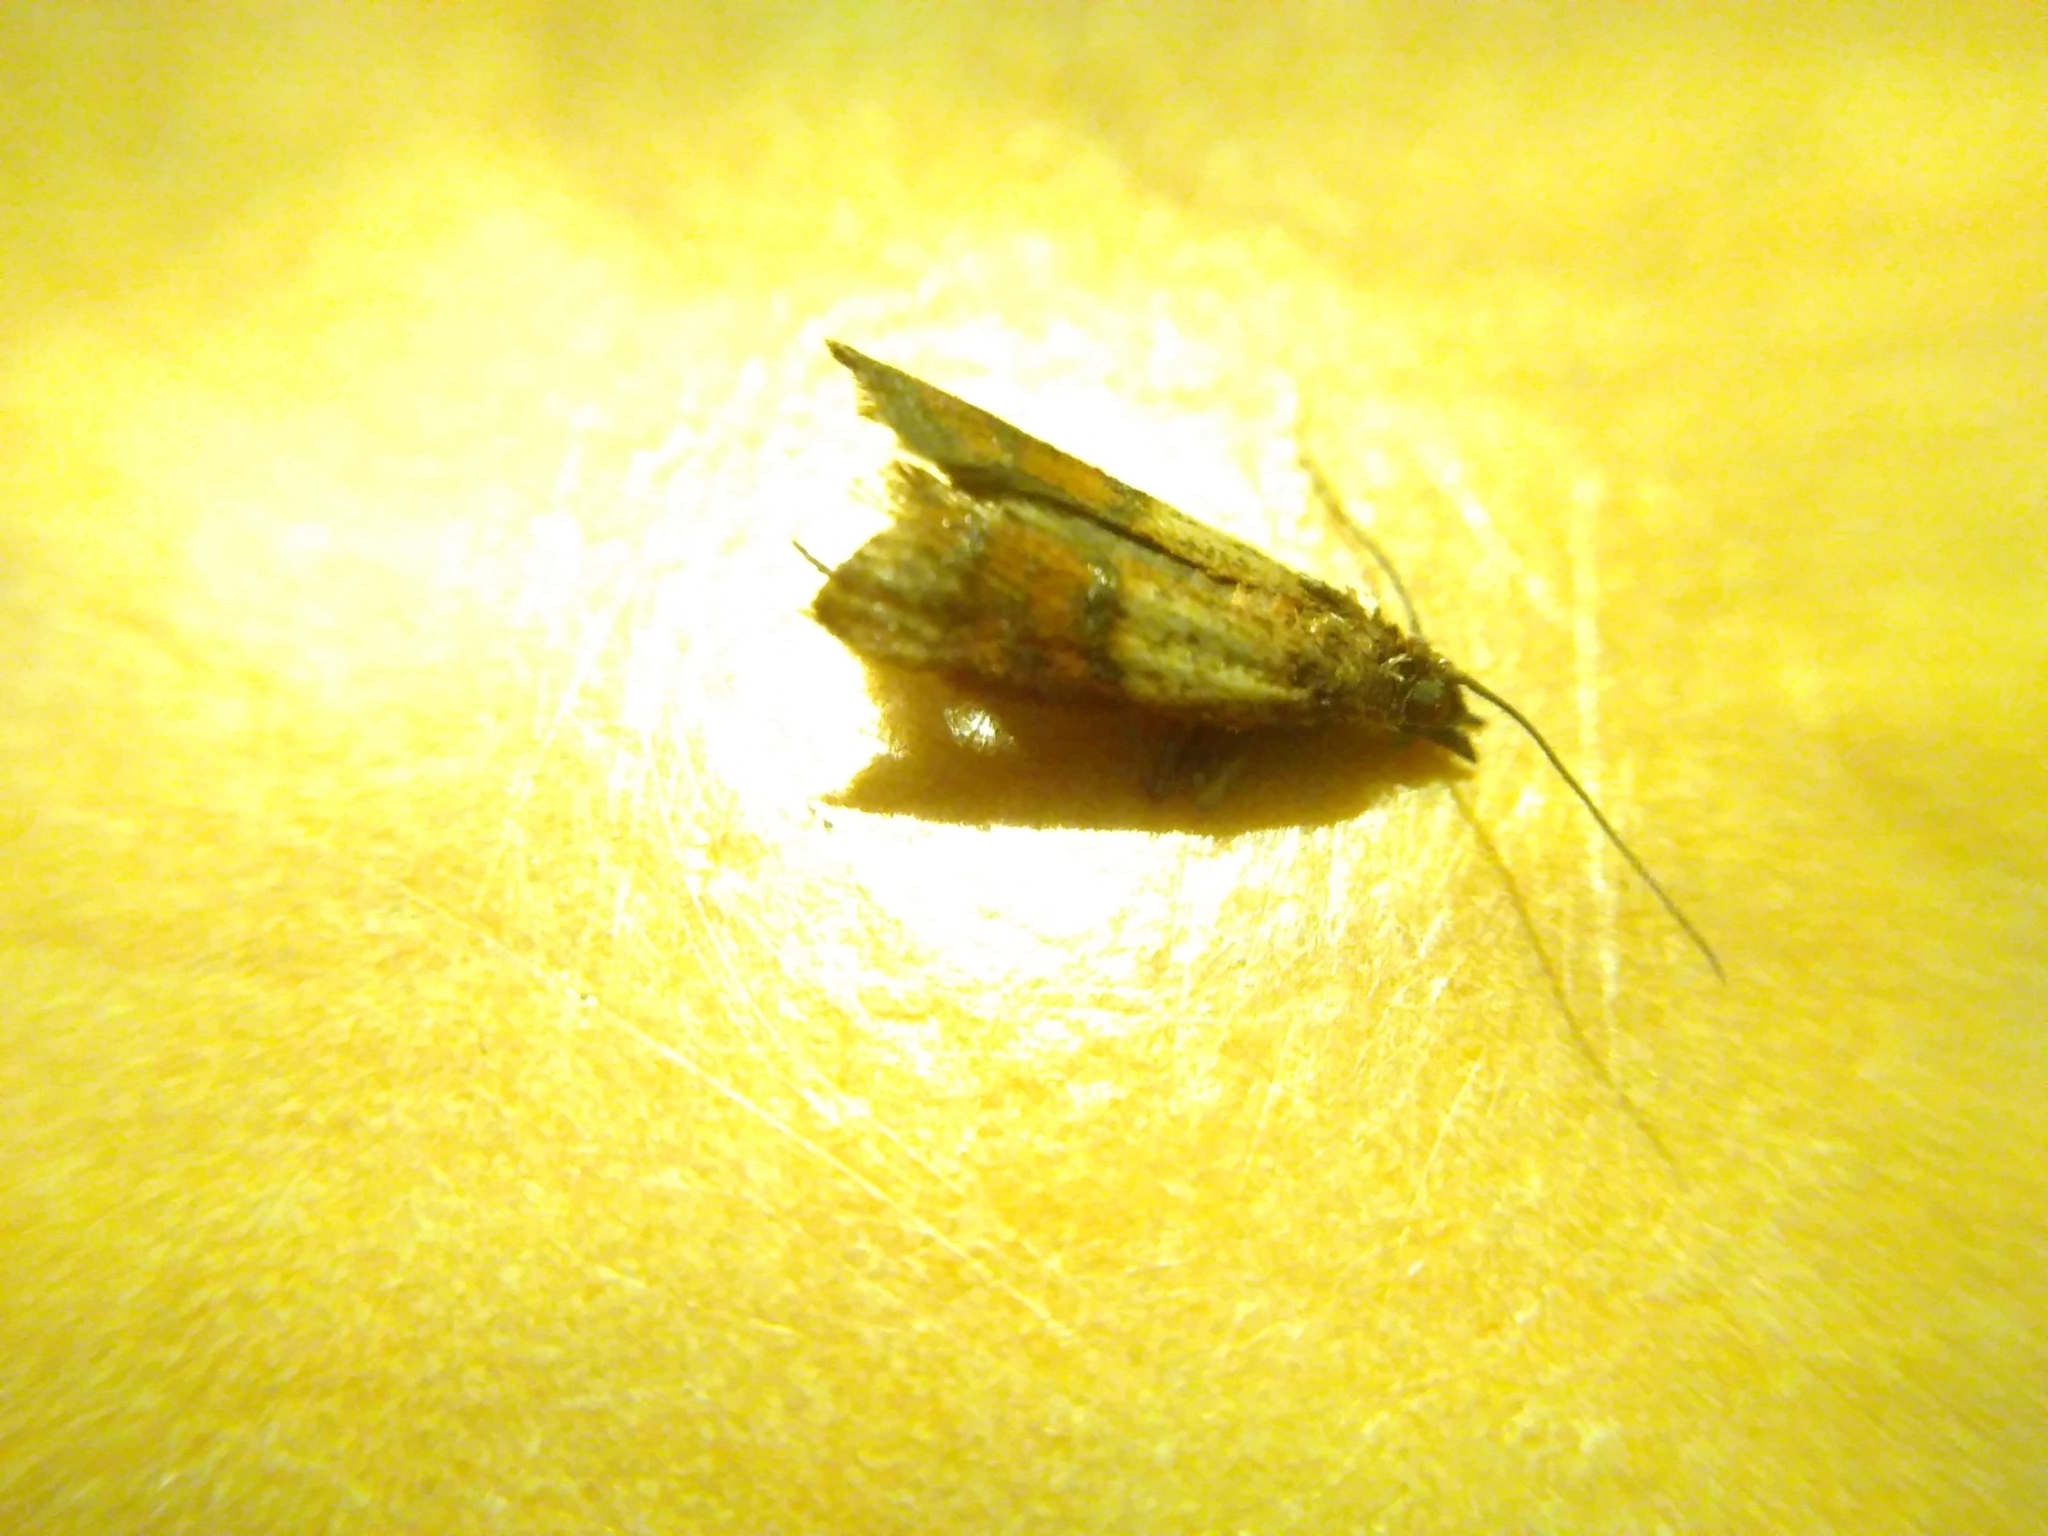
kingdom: Animalia
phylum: Arthropoda
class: Insecta
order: Lepidoptera
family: Pyralidae
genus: Plodia
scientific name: Plodia interpunctella
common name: Indian meal moth
